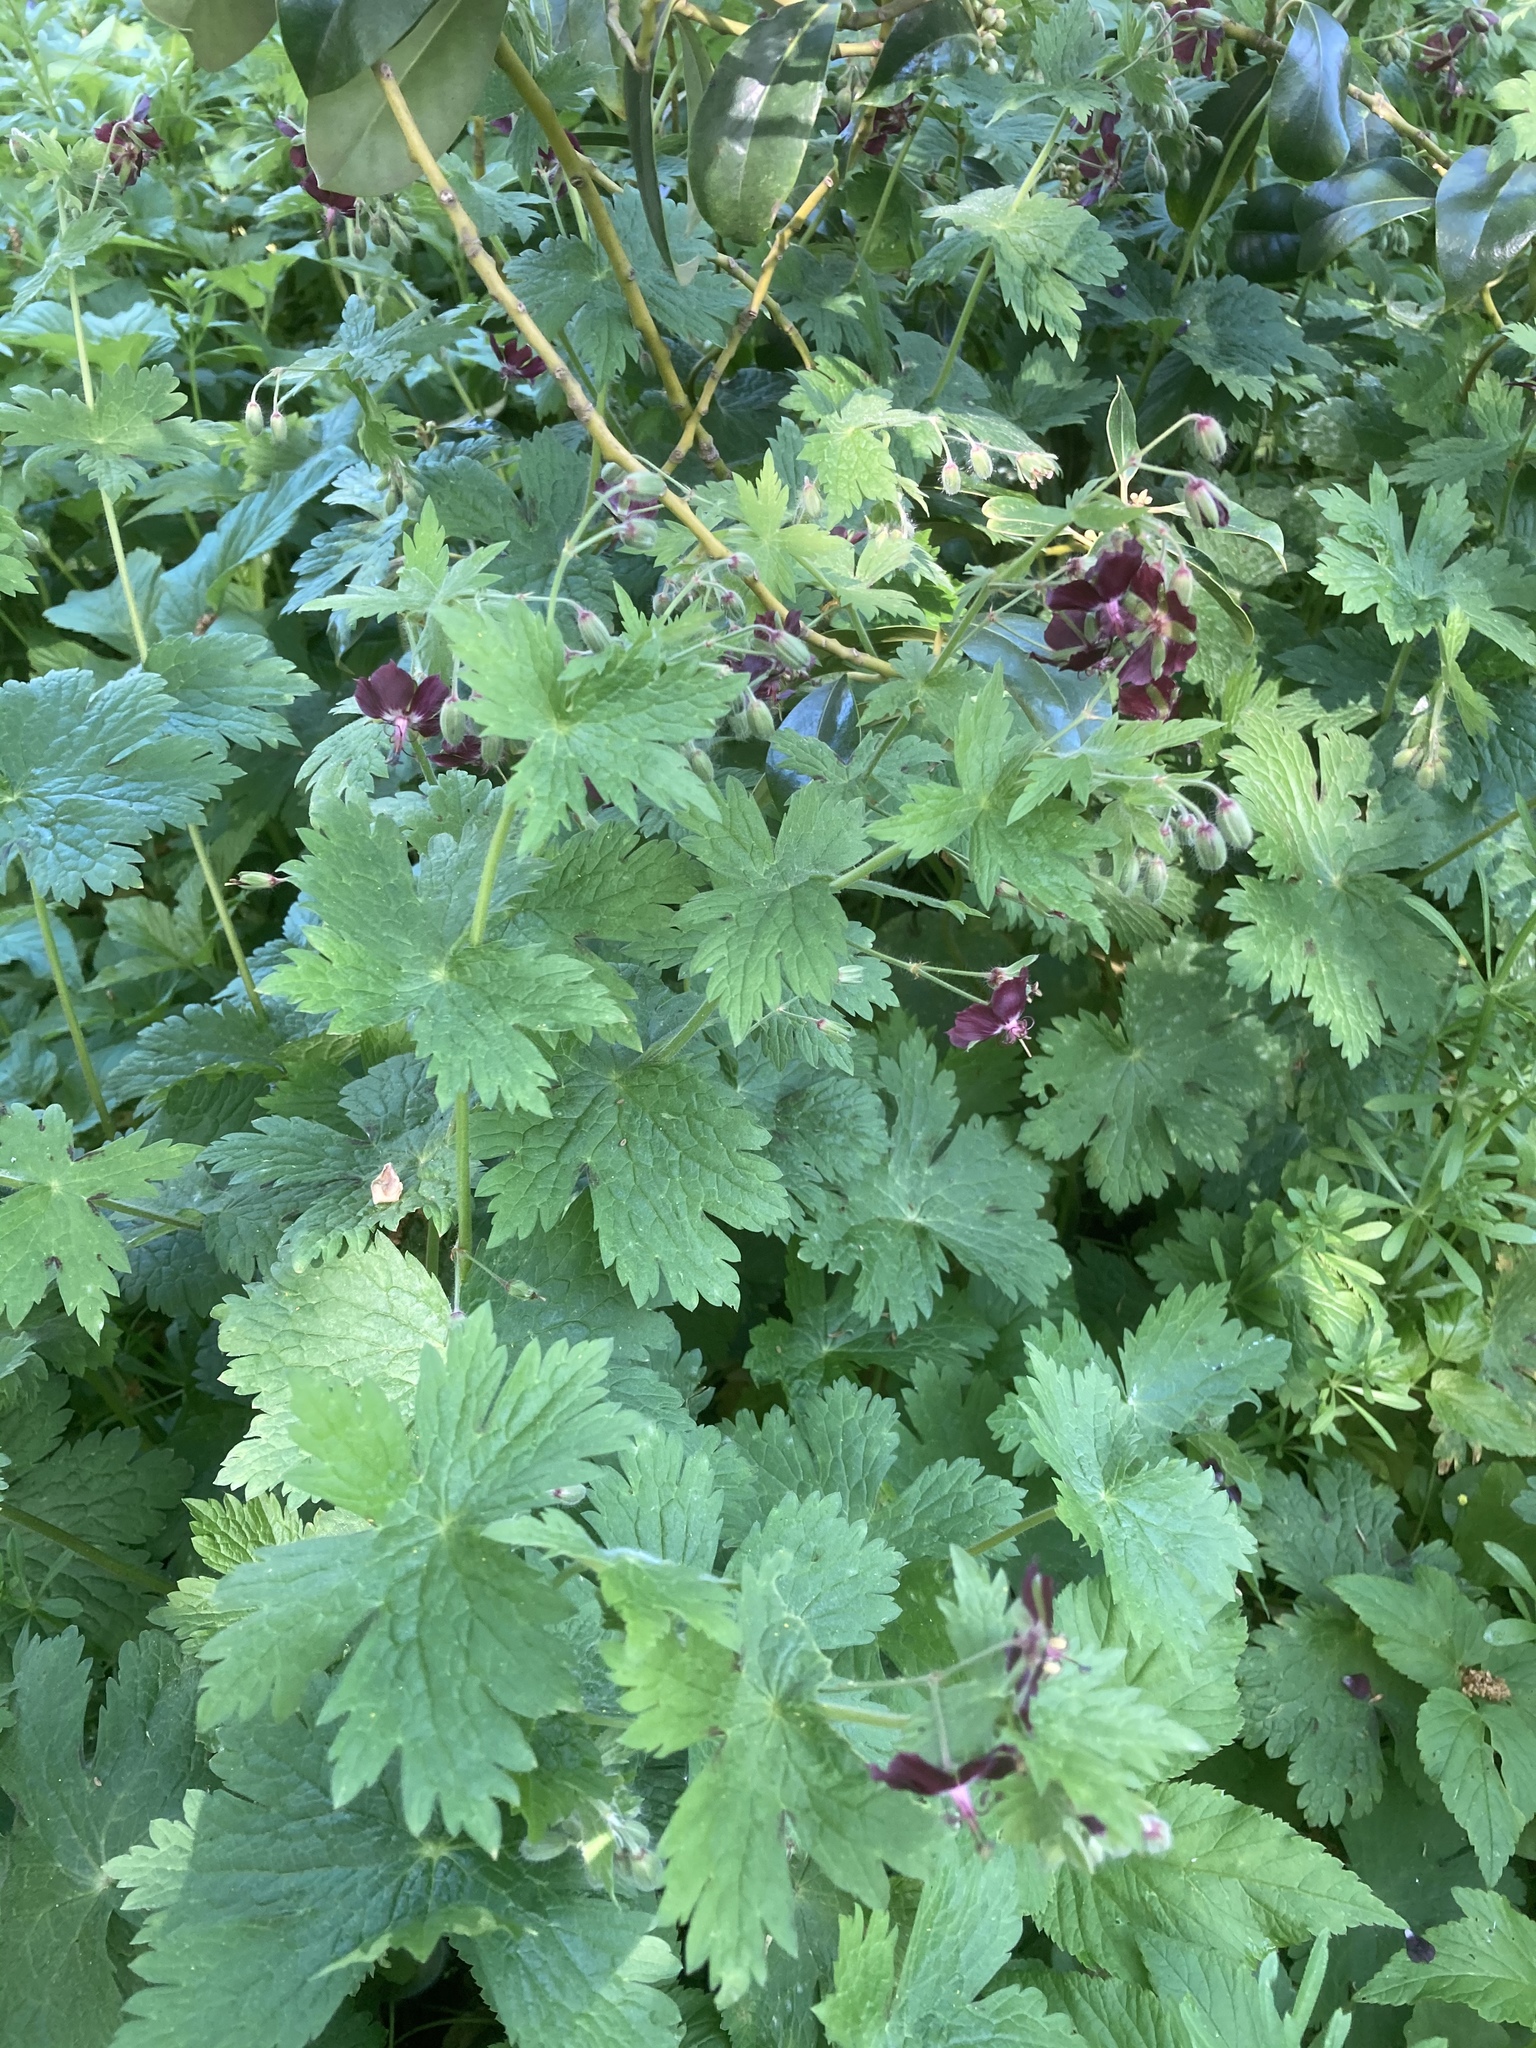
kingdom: Plantae
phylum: Tracheophyta
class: Magnoliopsida
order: Geraniales
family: Geraniaceae
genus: Geranium
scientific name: Geranium phaeum
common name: Dusky crane's-bill
